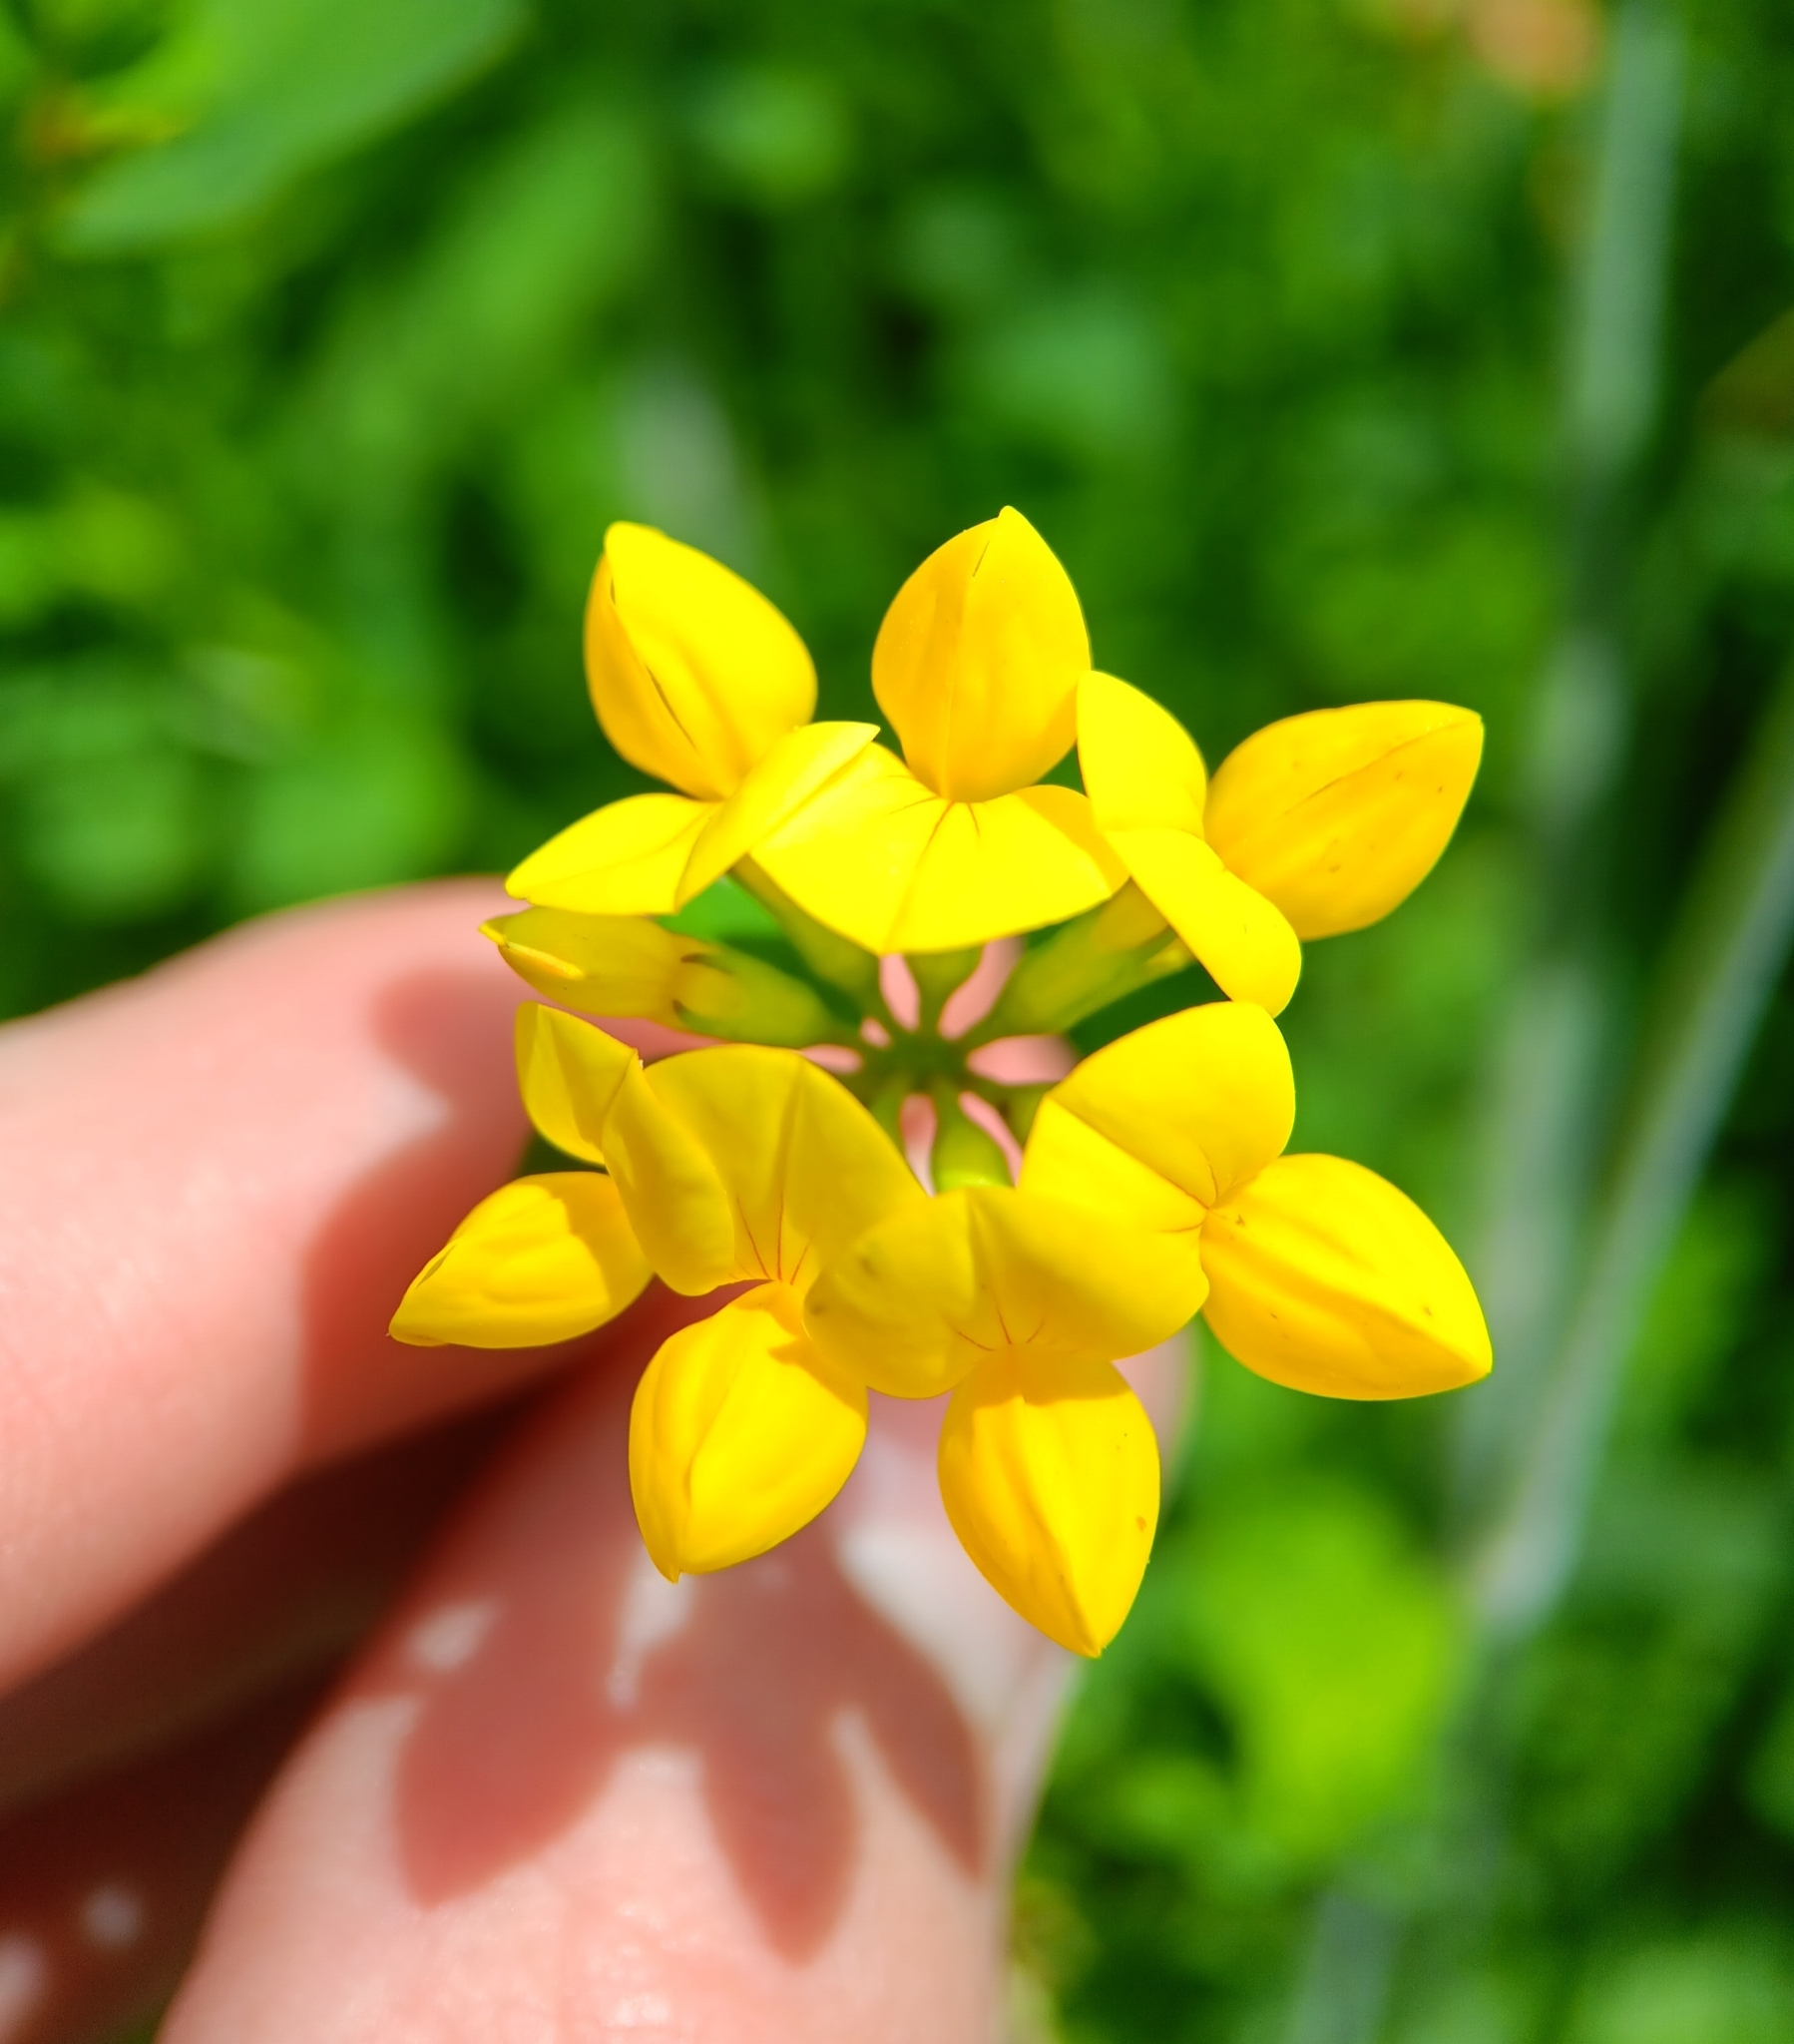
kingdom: Plantae
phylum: Tracheophyta
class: Magnoliopsida
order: Fabales
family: Fabaceae
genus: Lotus
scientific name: Lotus corniculatus
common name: Common bird's-foot-trefoil
